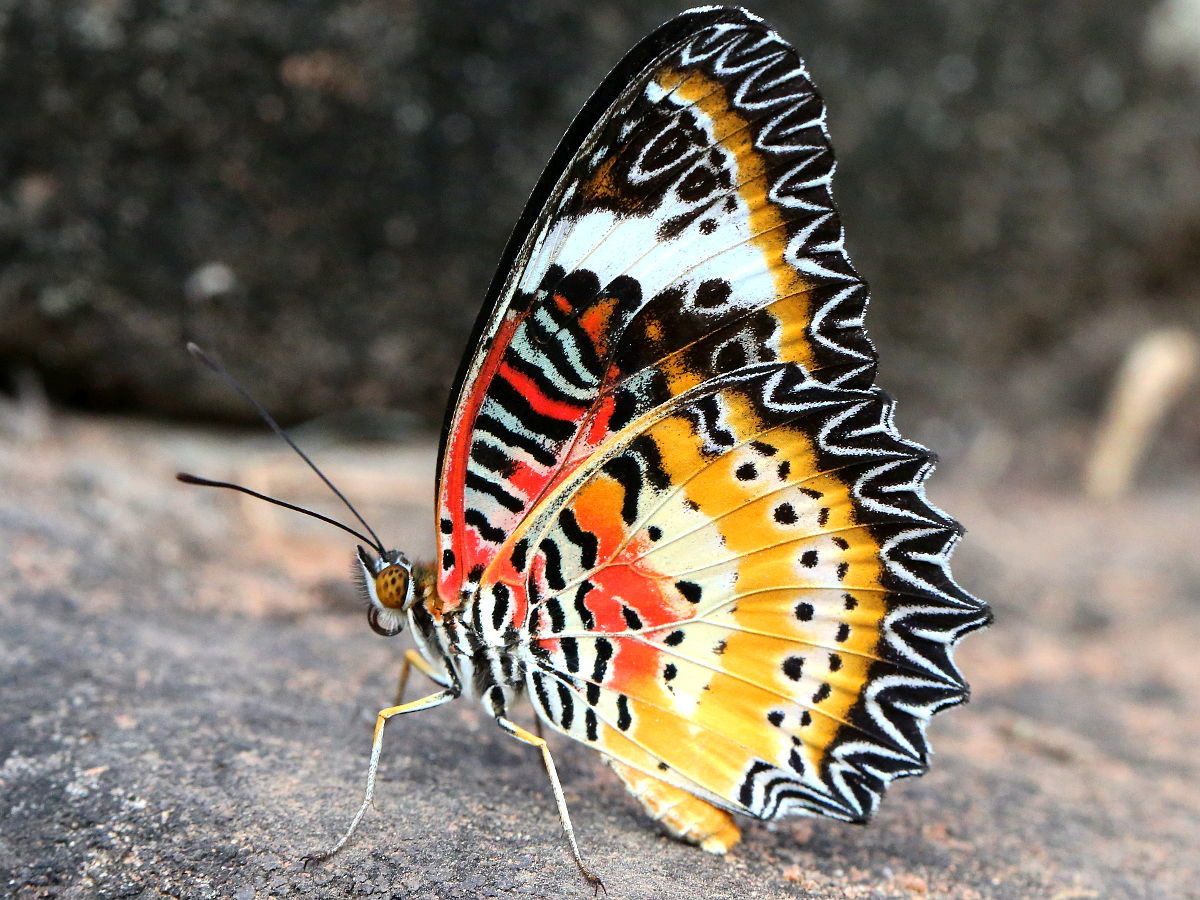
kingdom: Animalia
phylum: Arthropoda
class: Insecta
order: Lepidoptera
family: Nymphalidae
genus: Cethosia
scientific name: Cethosia cyane
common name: Leopard lacewing butterfly
